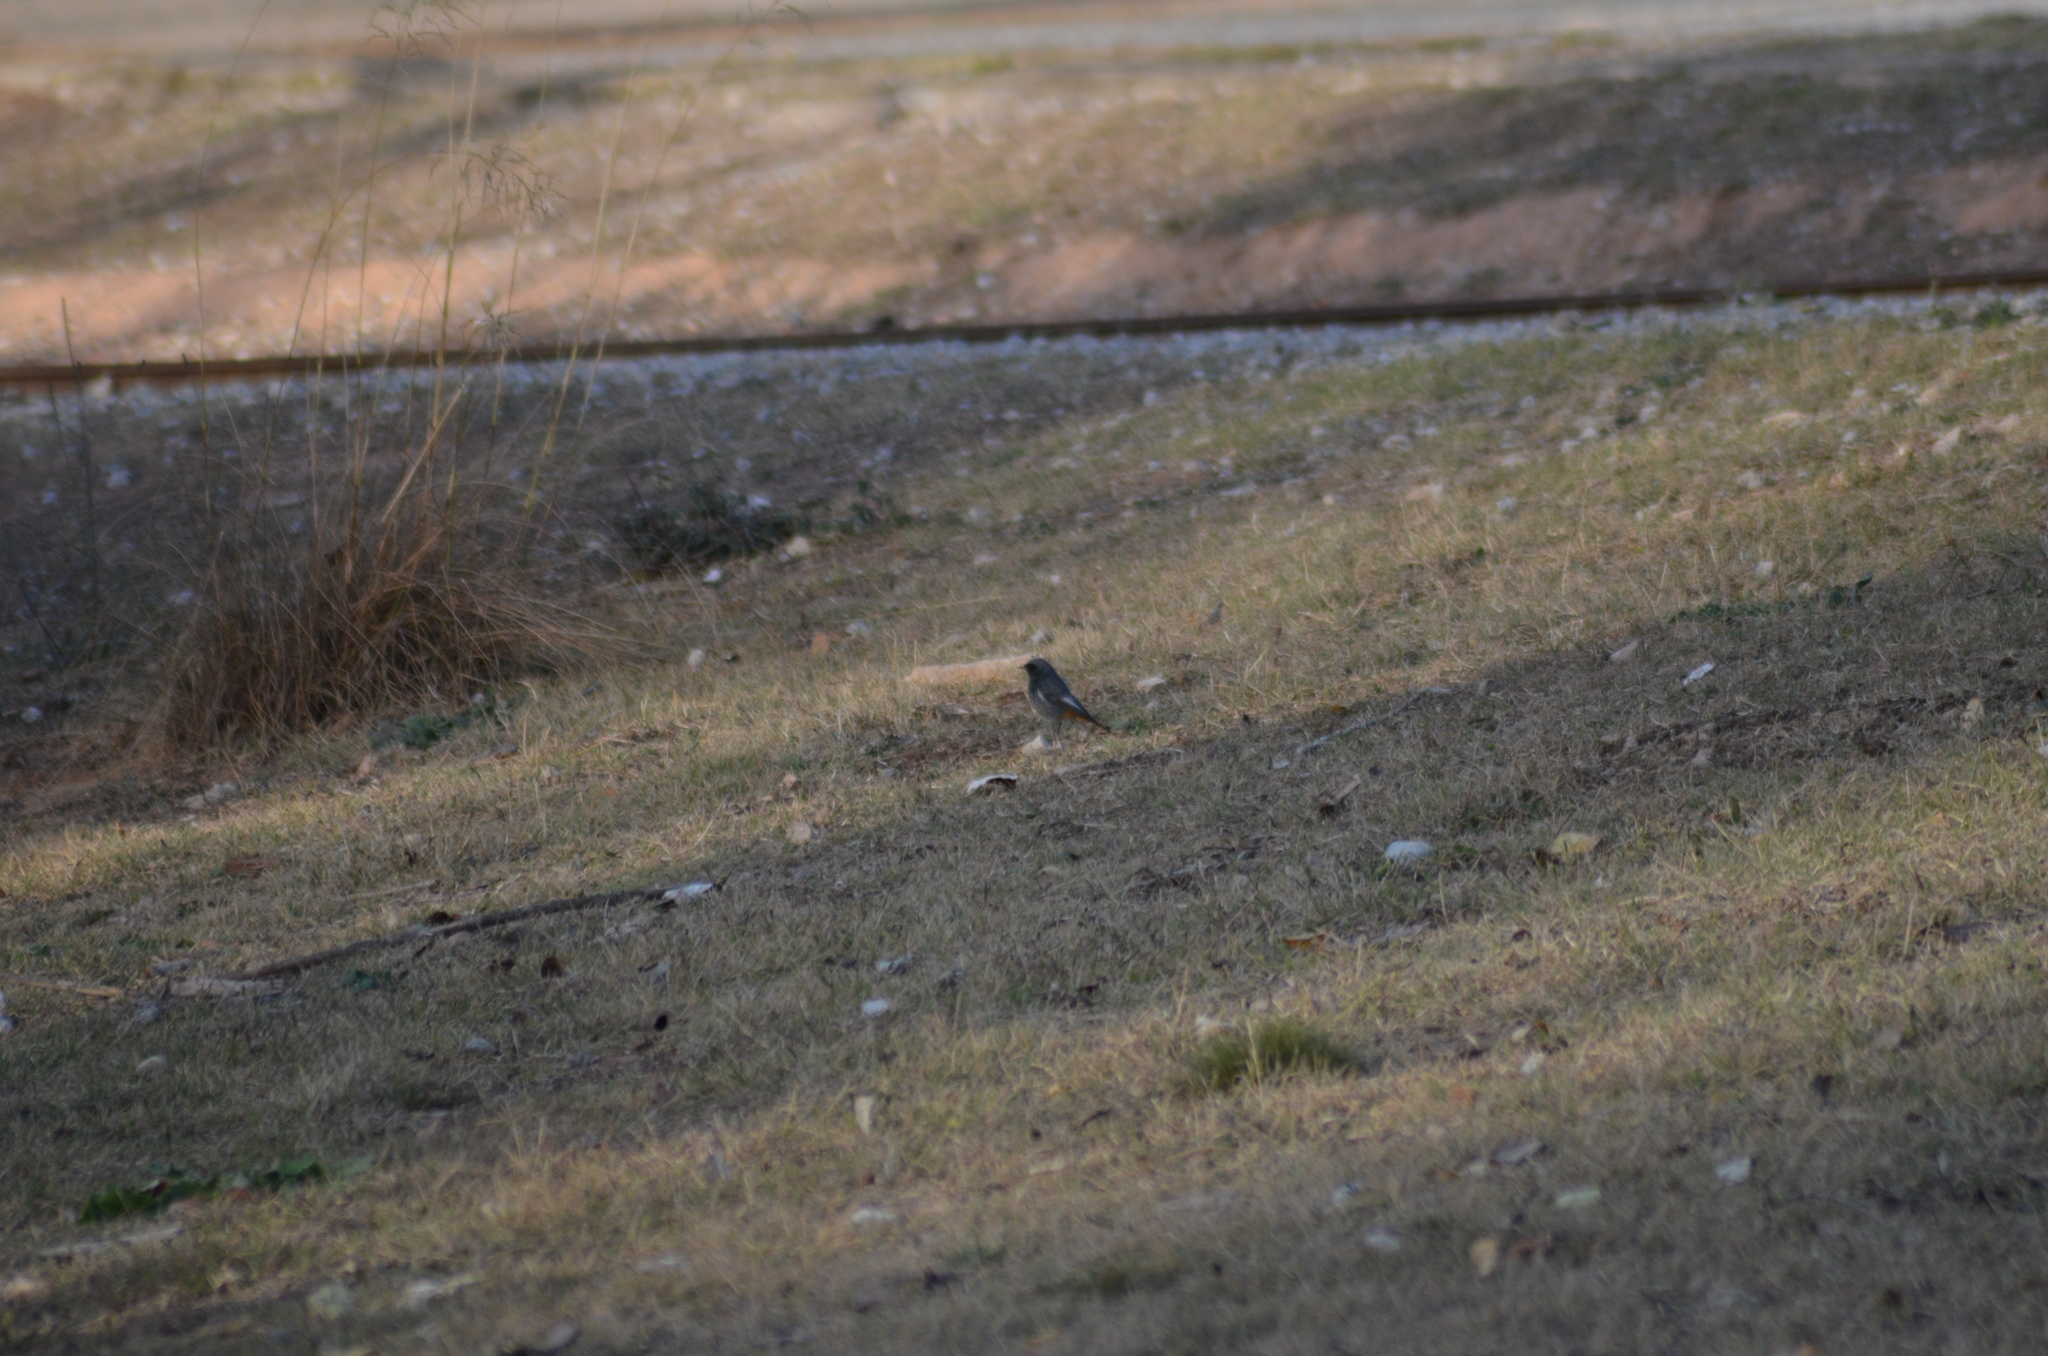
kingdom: Animalia
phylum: Chordata
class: Aves
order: Passeriformes
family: Muscicapidae
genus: Phoenicurus
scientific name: Phoenicurus ochruros
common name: Black redstart
